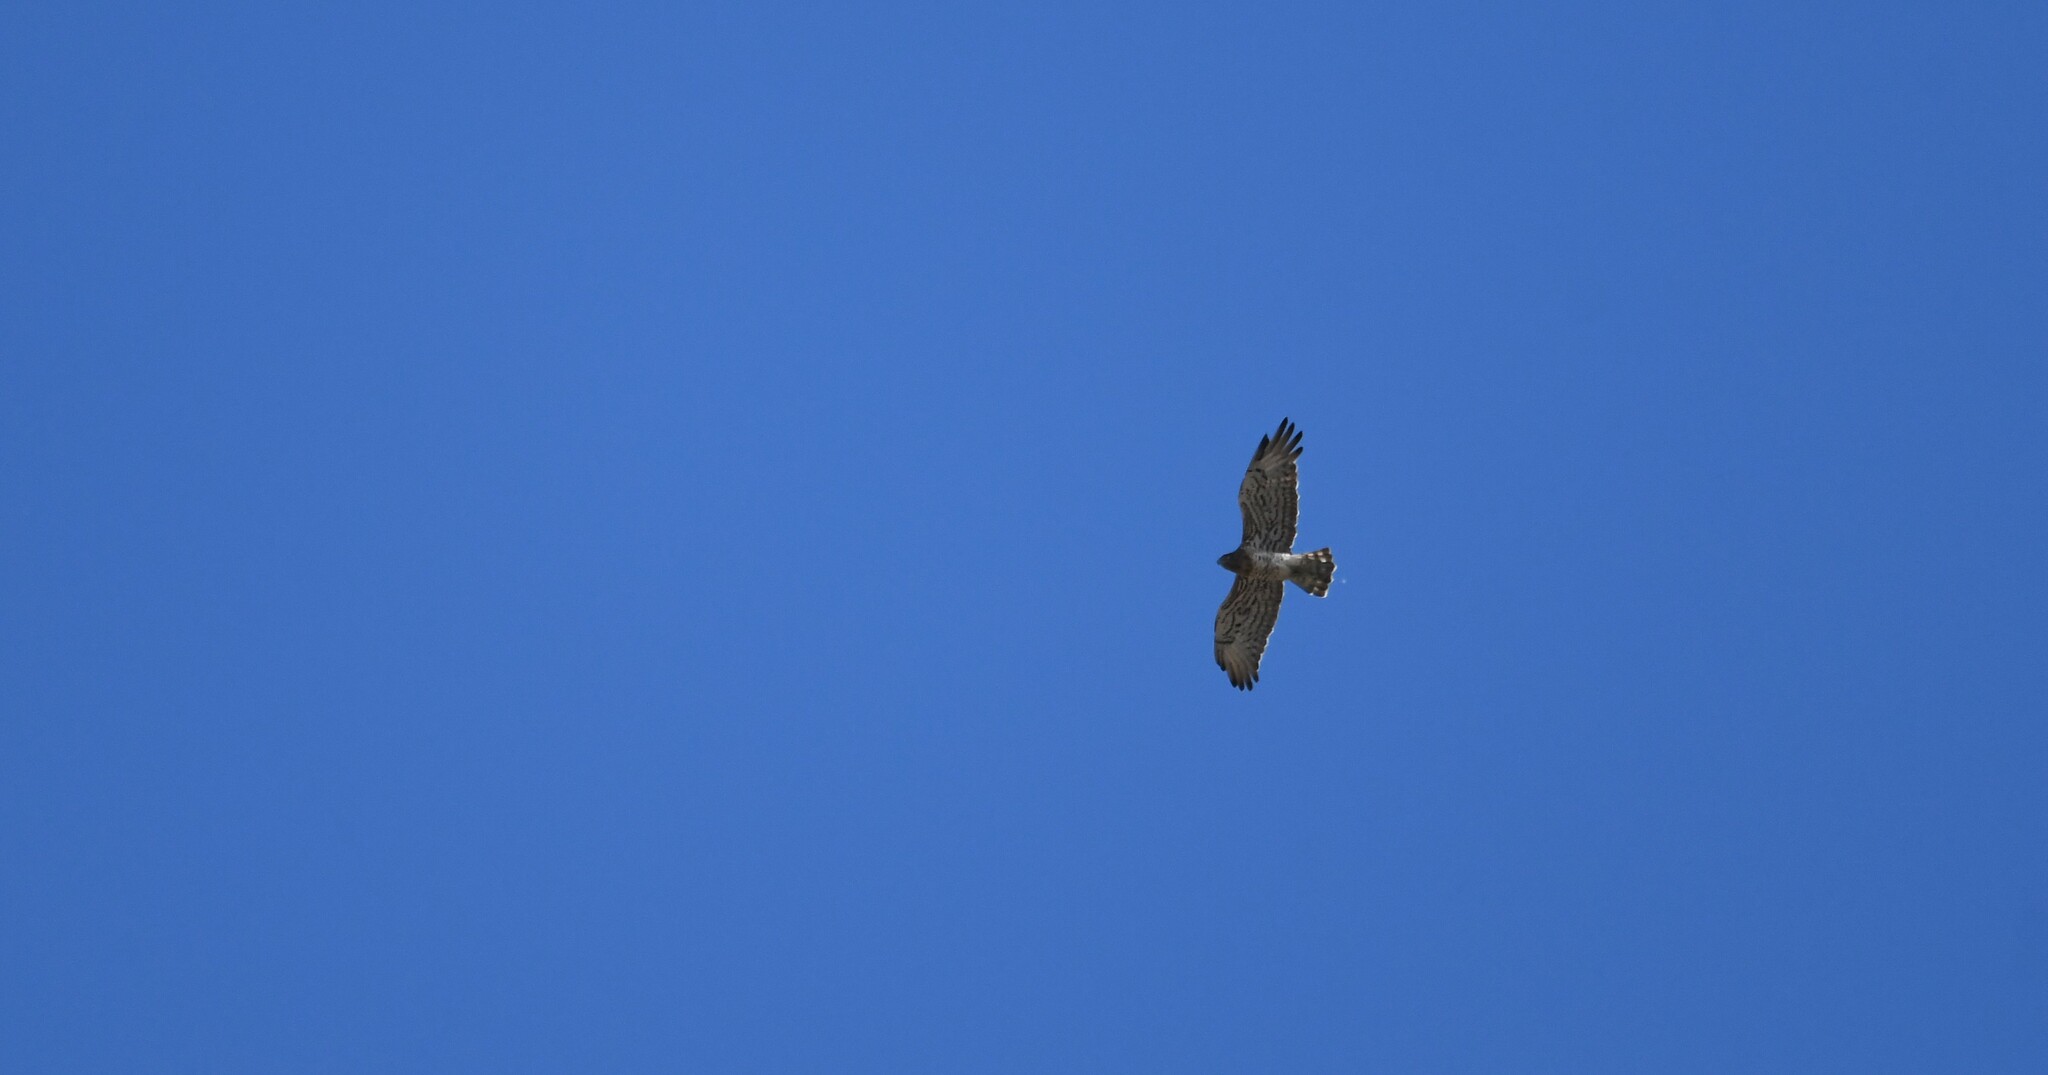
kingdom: Animalia
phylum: Chordata
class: Aves
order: Accipitriformes
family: Accipitridae
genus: Circaetus
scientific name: Circaetus gallicus
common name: Short-toed snake eagle
